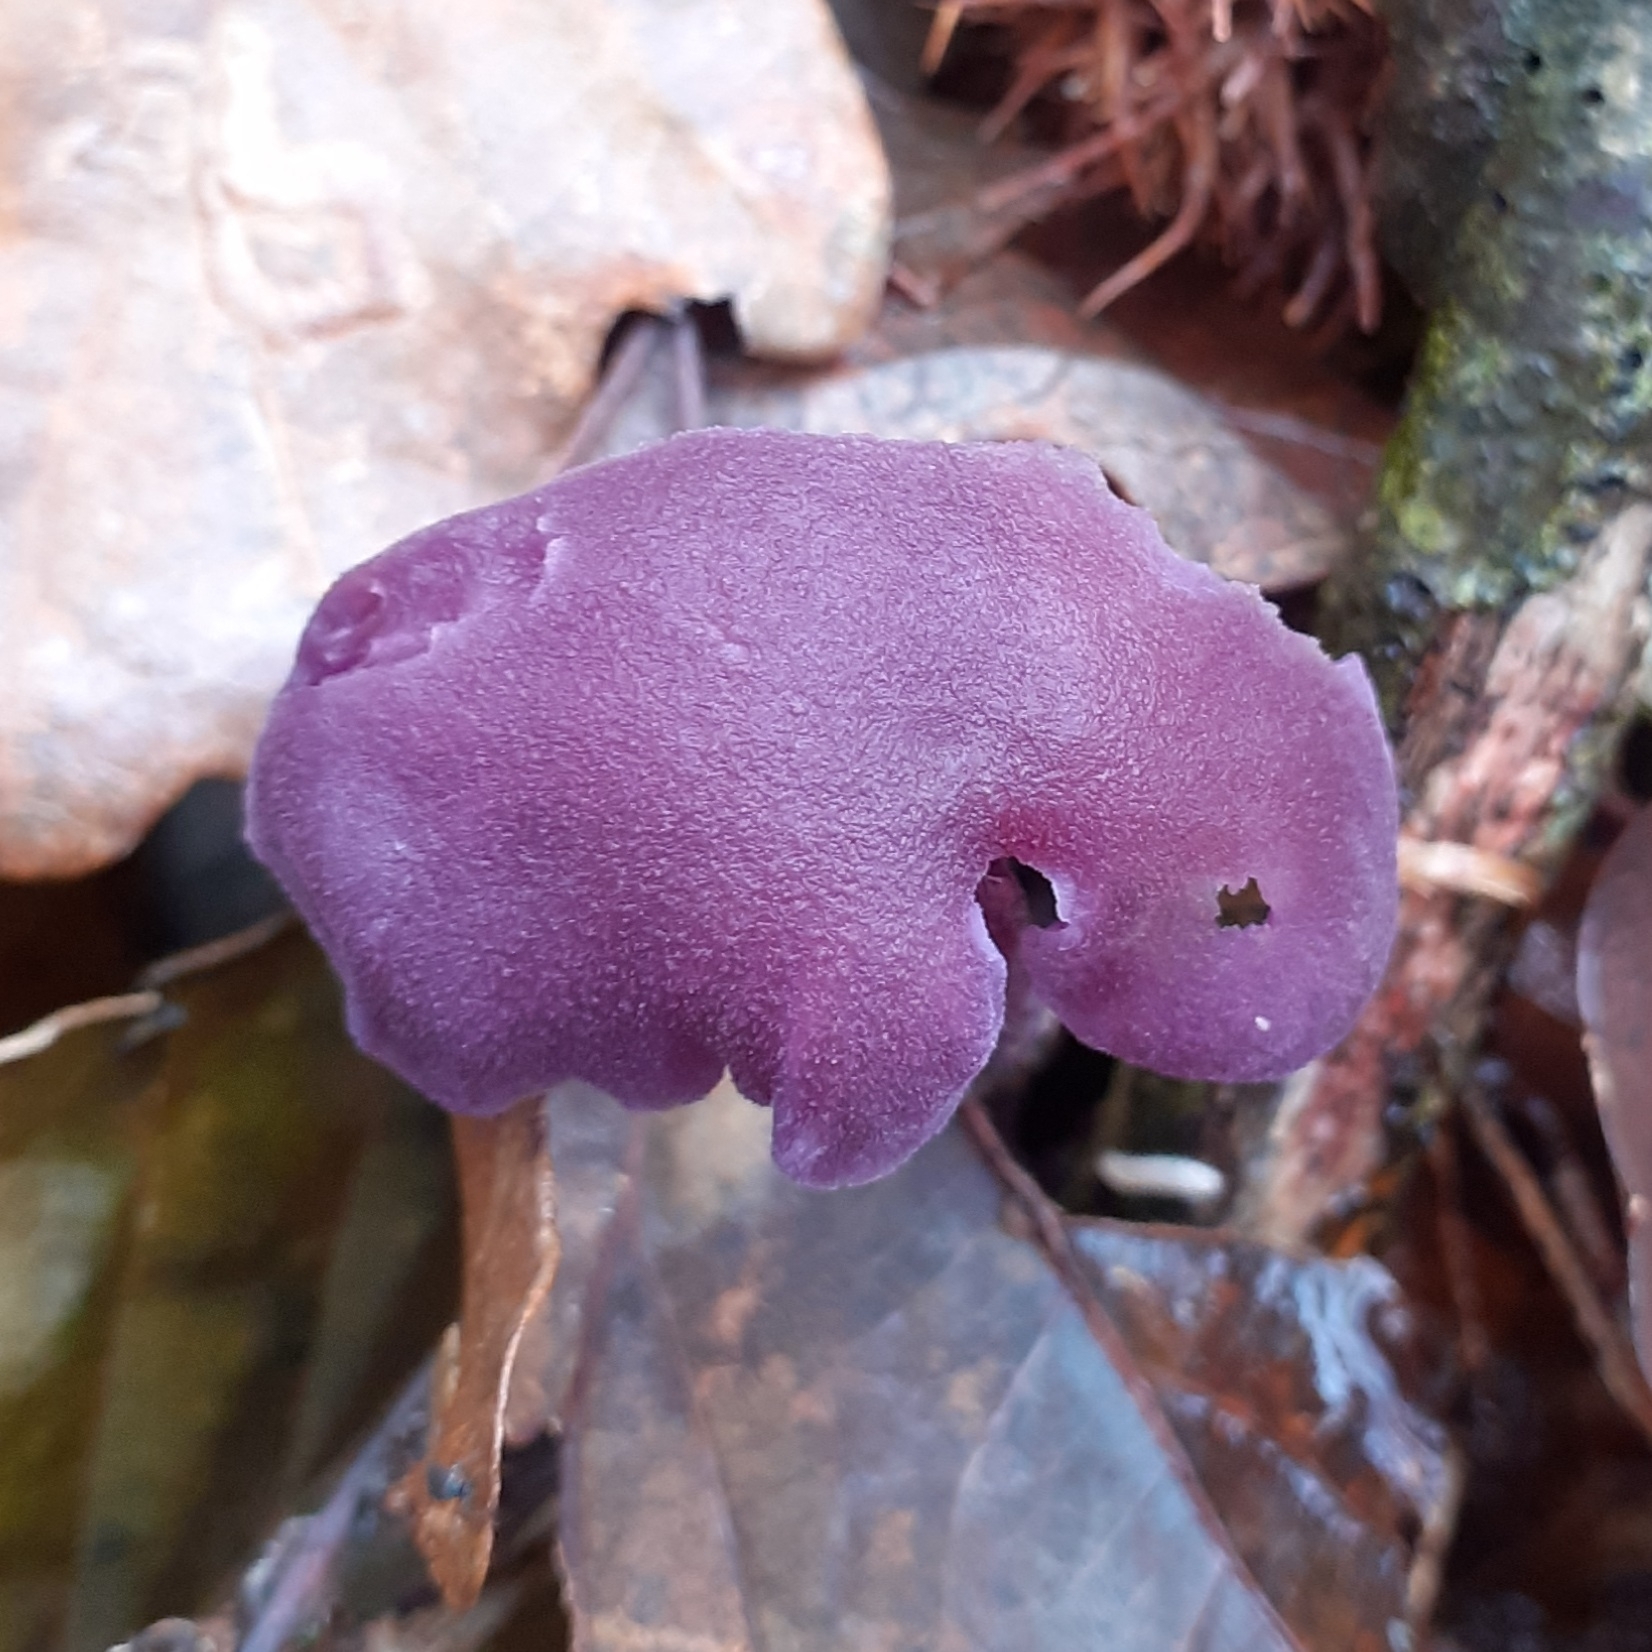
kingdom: Fungi
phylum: Basidiomycota
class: Agaricomycetes
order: Agaricales
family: Hydnangiaceae
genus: Laccaria
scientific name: Laccaria amethystina
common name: Amethyst deceiver
